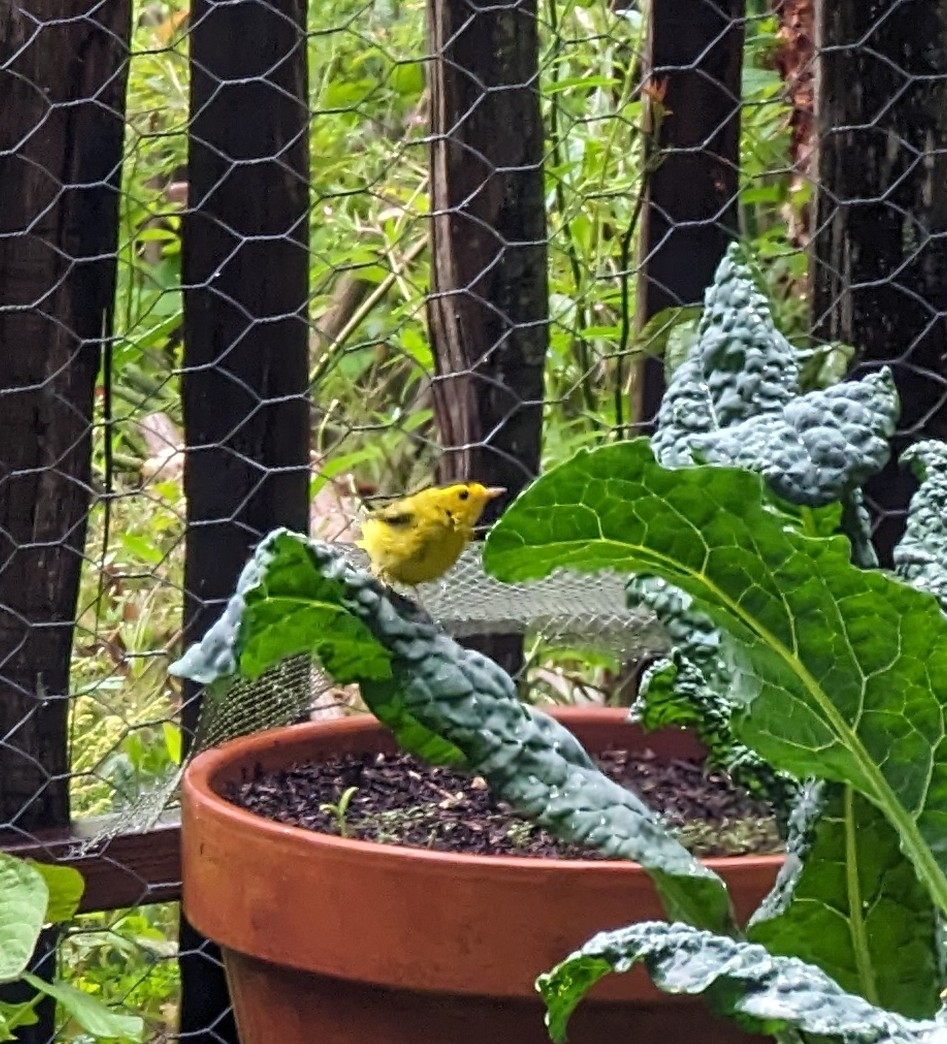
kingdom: Animalia
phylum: Chordata
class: Aves
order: Passeriformes
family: Parulidae
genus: Cardellina
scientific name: Cardellina pusilla
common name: Wilson's warbler
